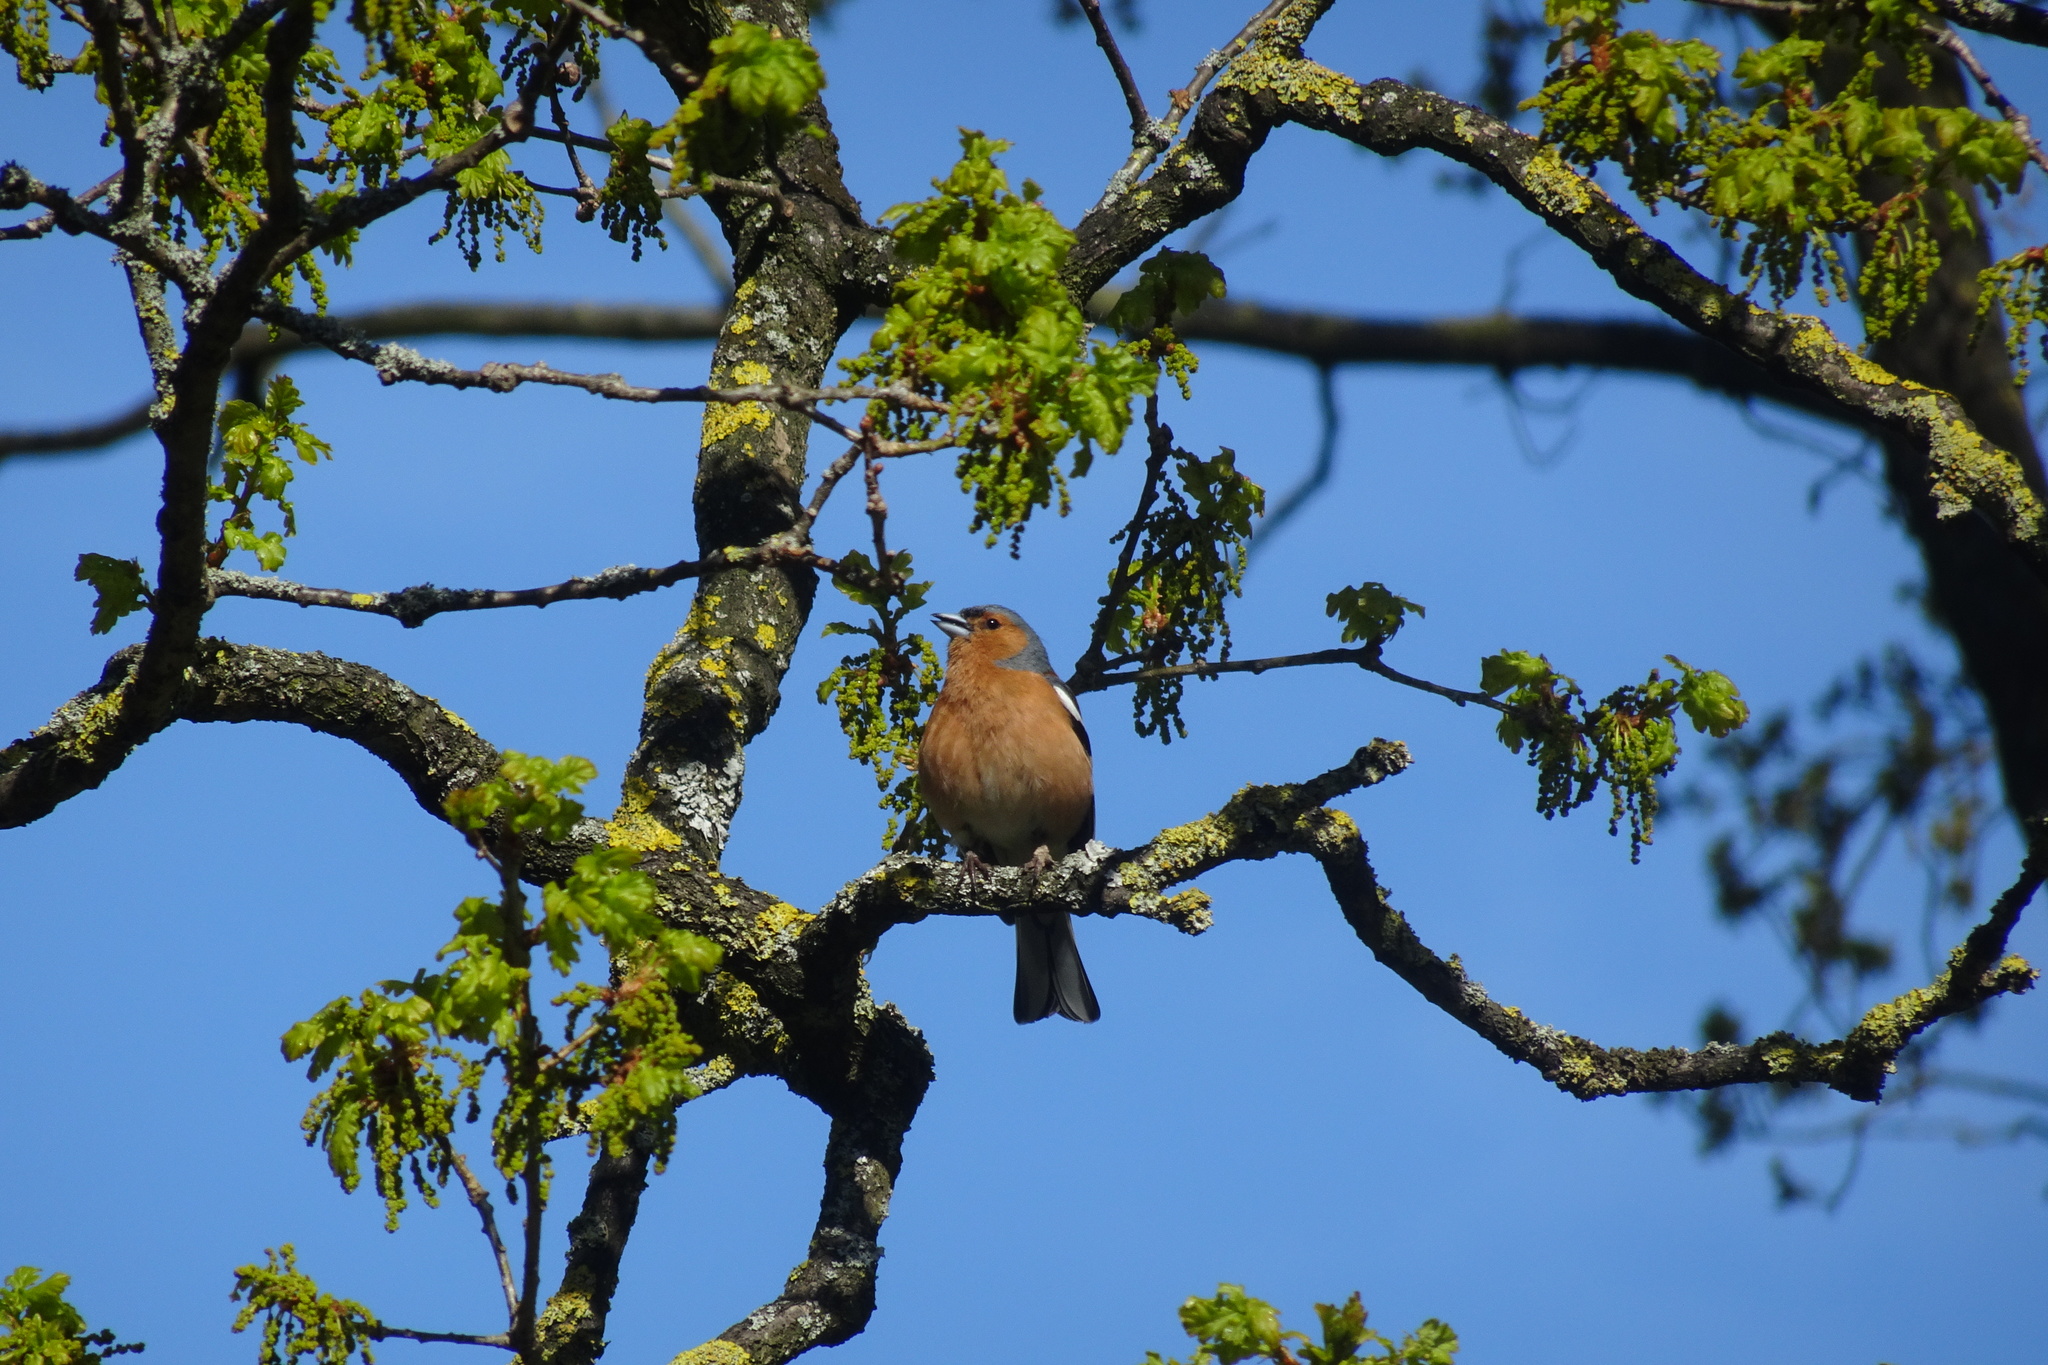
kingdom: Animalia
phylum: Chordata
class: Aves
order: Passeriformes
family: Fringillidae
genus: Fringilla
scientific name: Fringilla coelebs
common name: Common chaffinch
